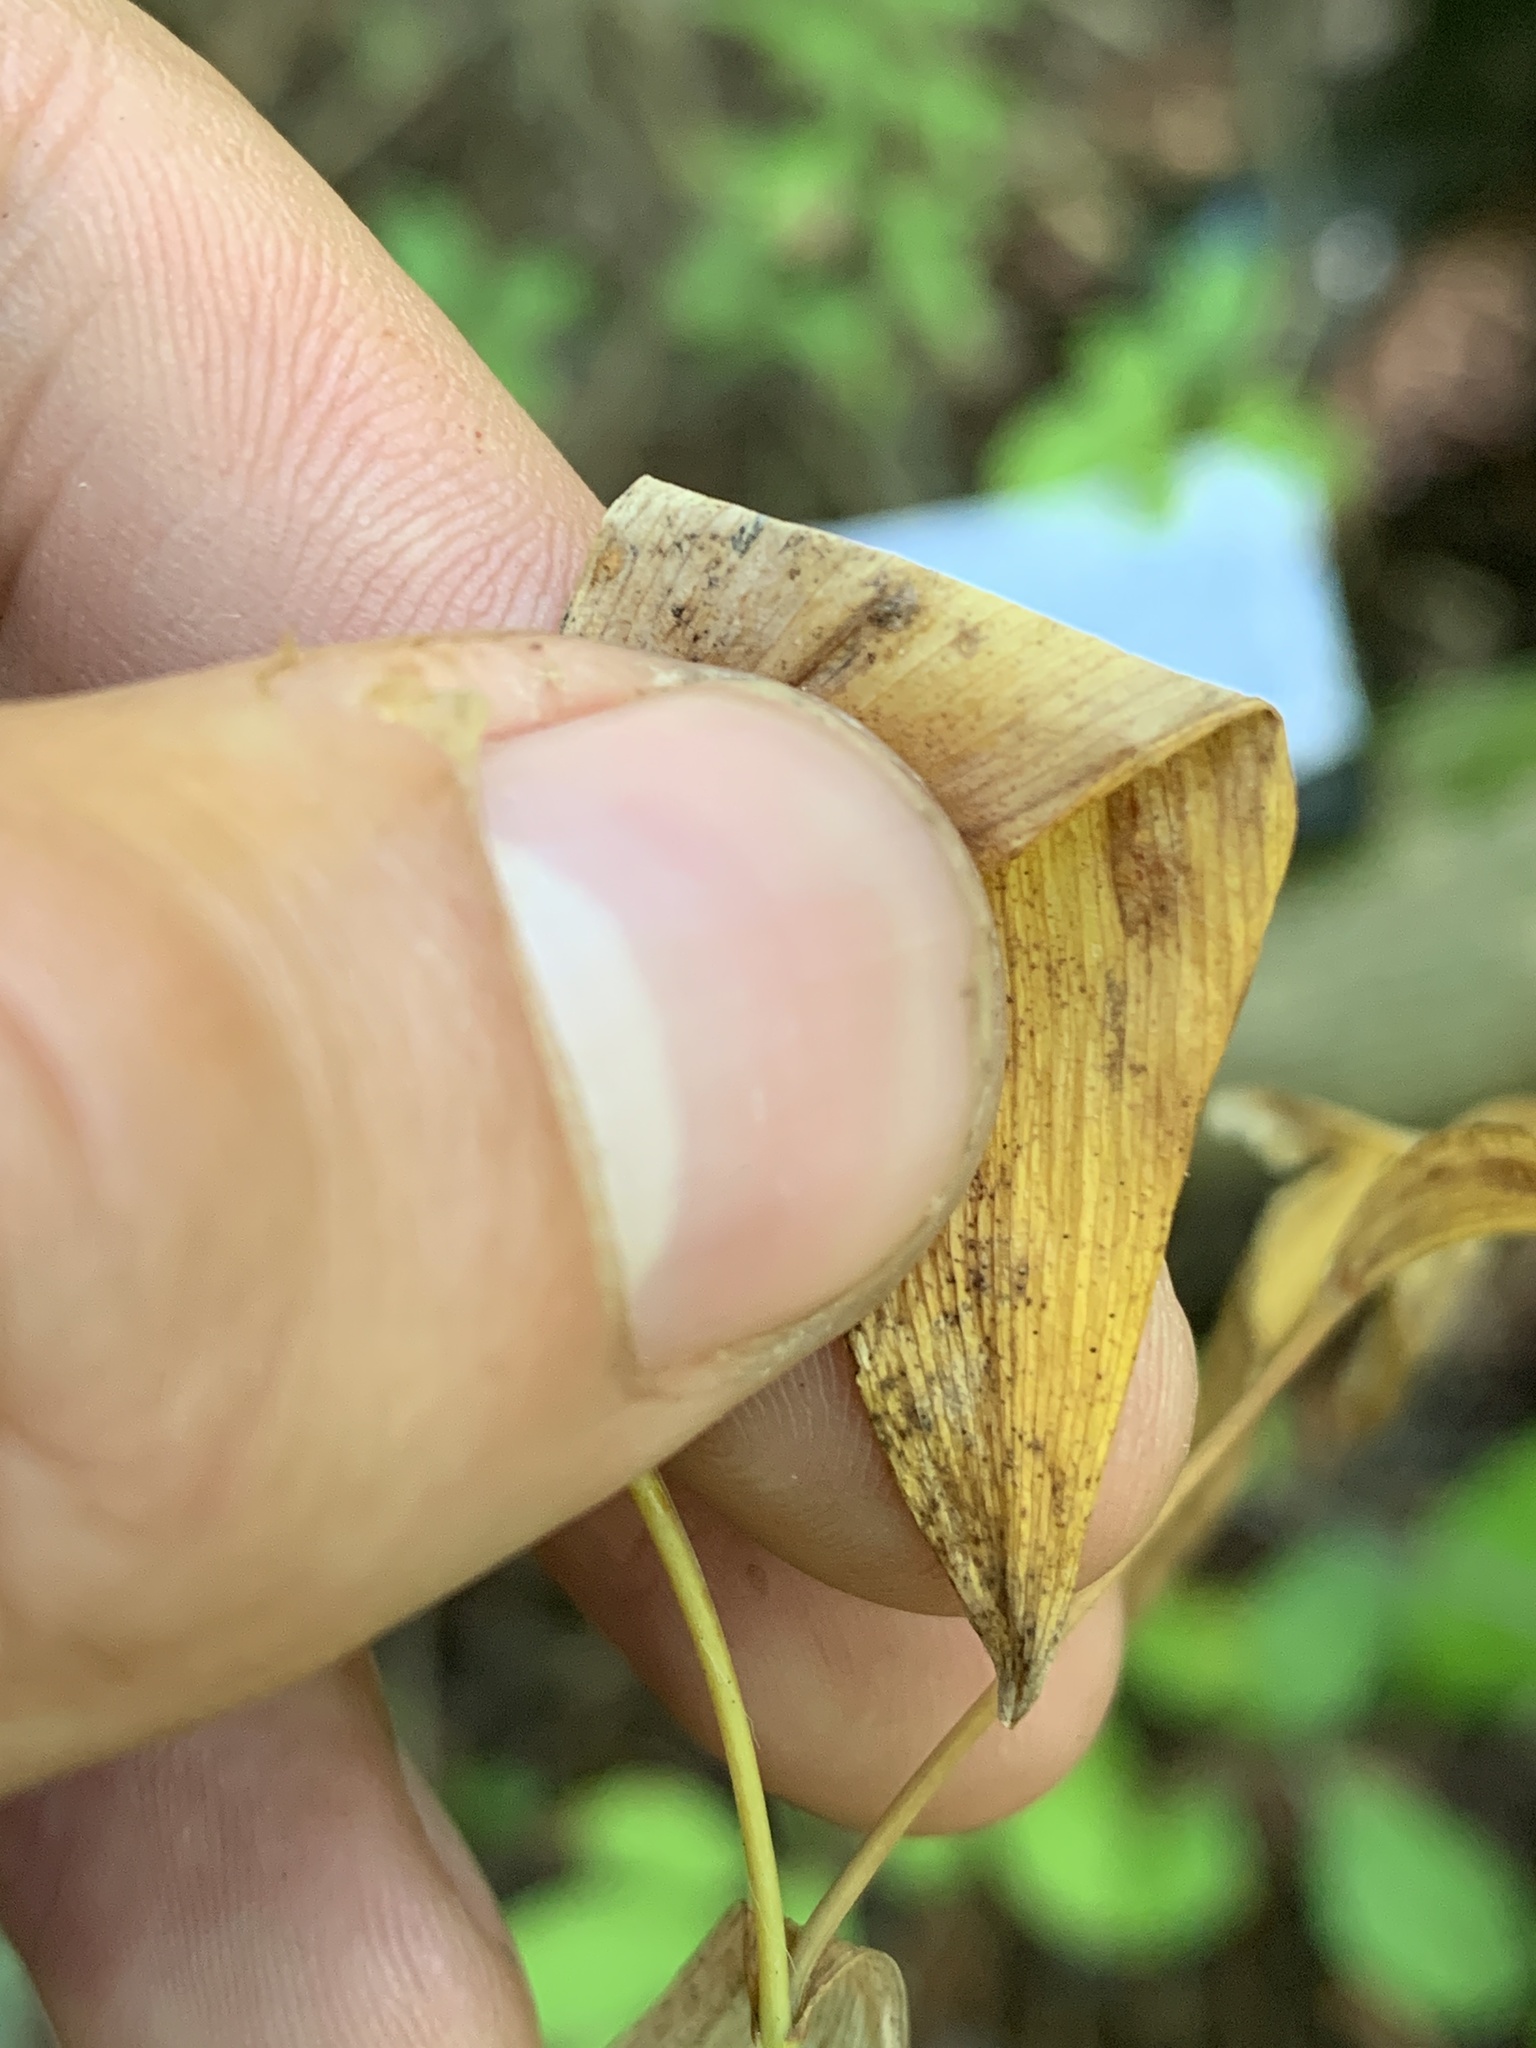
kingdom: Plantae
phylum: Tracheophyta
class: Liliopsida
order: Liliales
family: Colchicaceae
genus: Uvularia
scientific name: Uvularia sessilifolia
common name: Straw-lily
